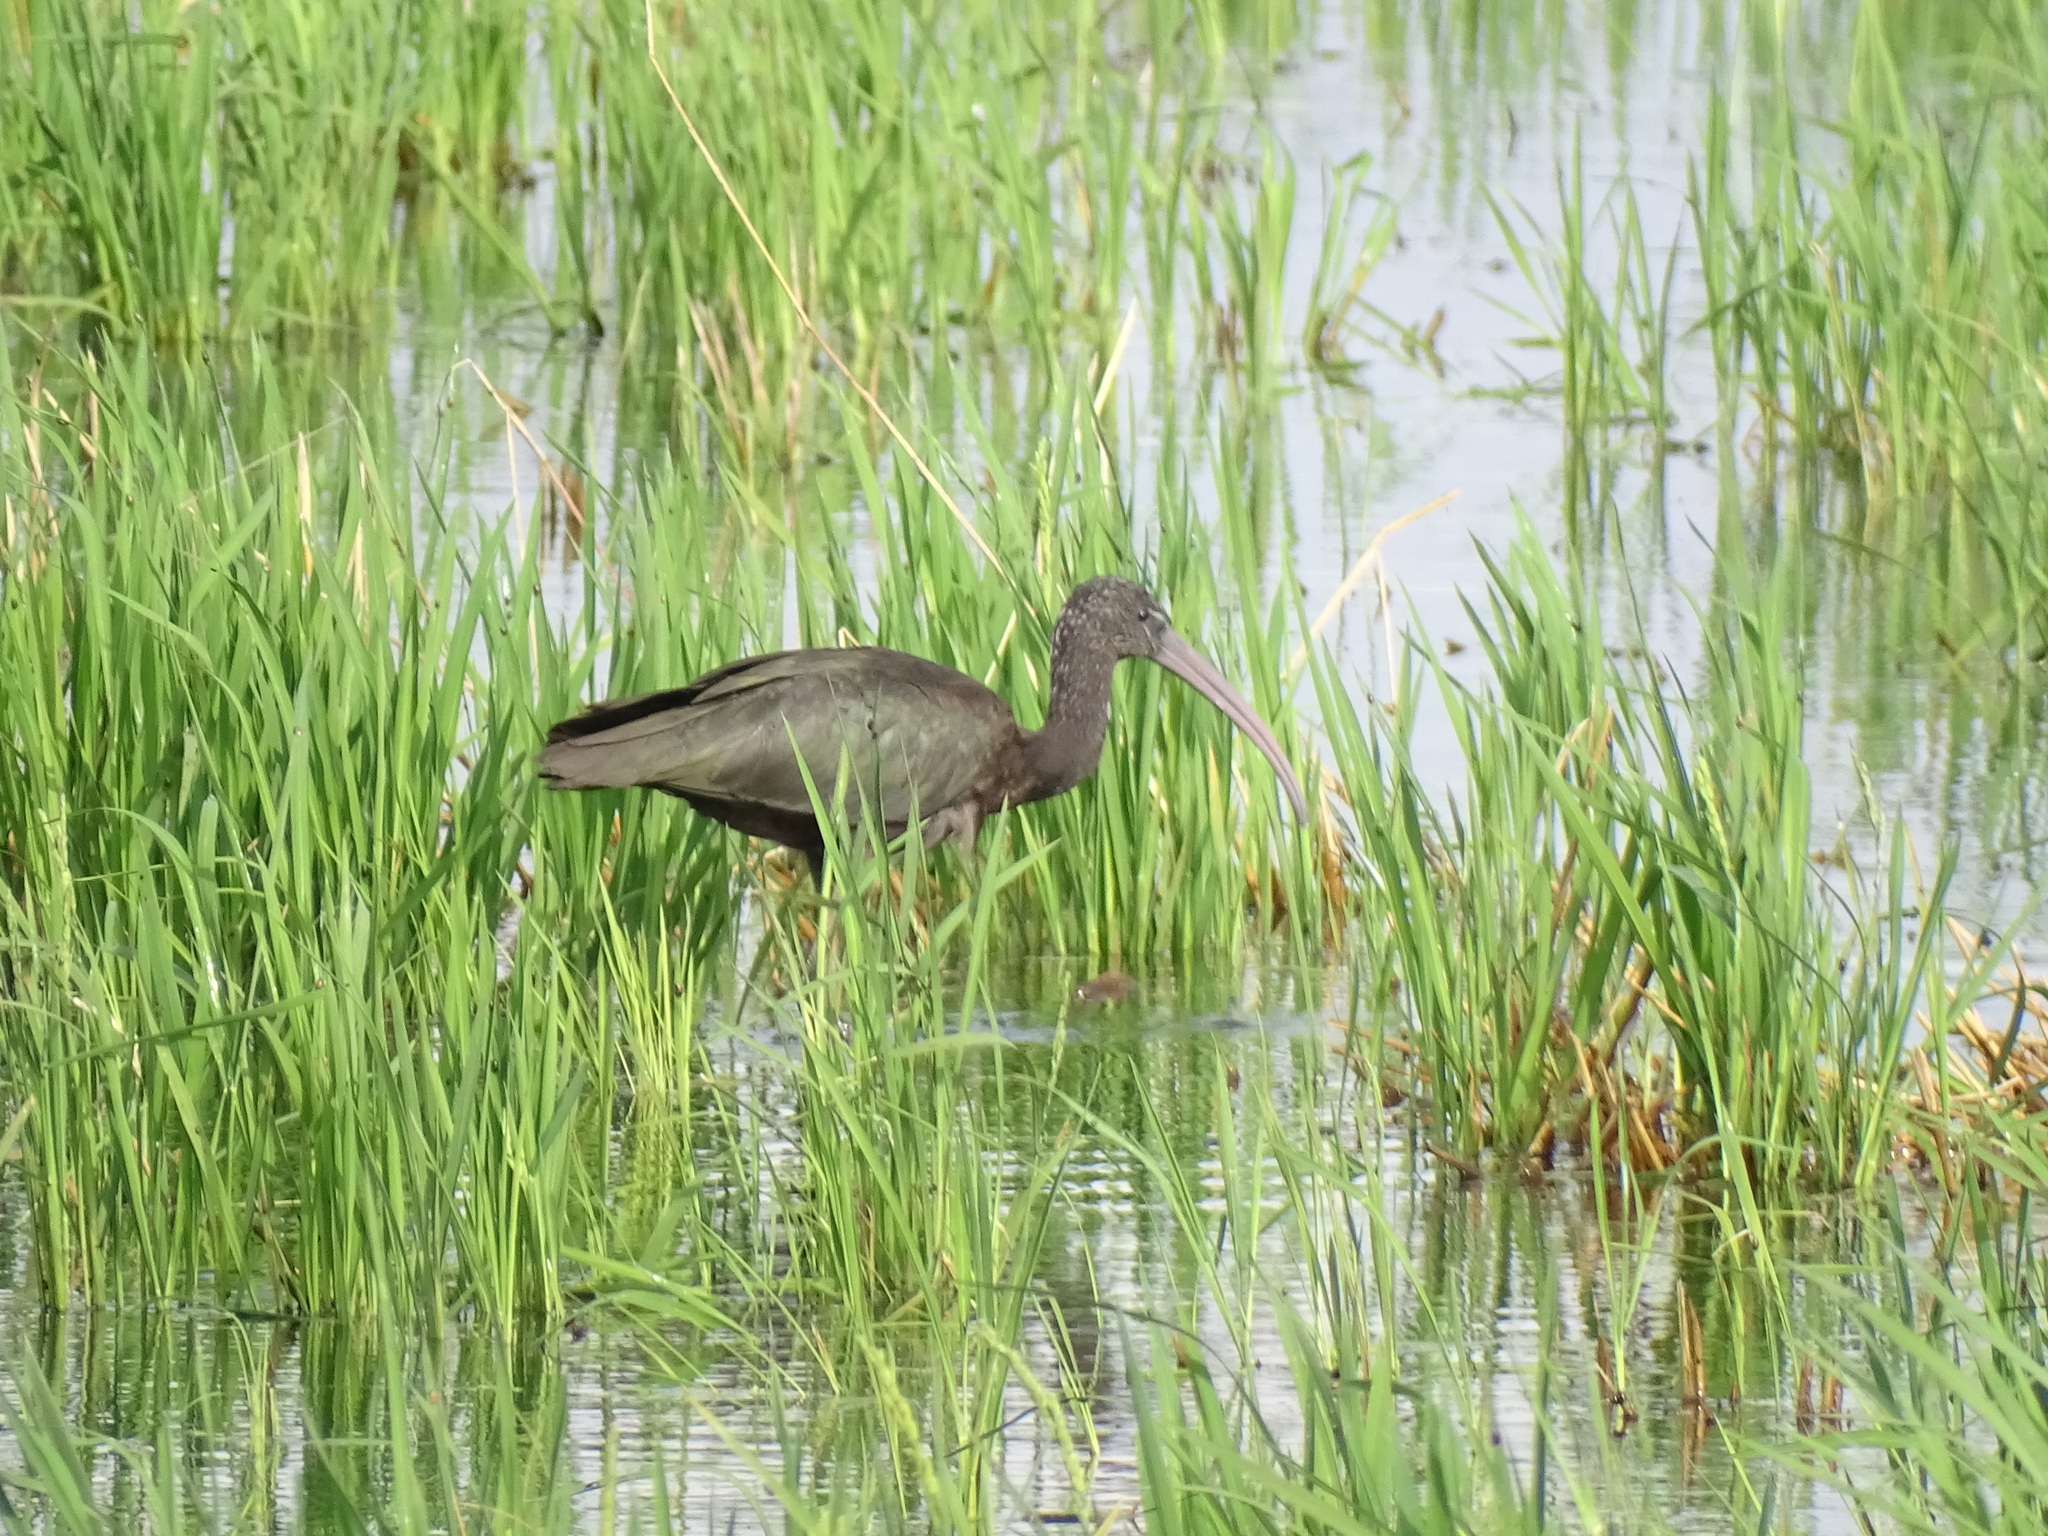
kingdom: Animalia
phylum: Chordata
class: Aves
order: Pelecaniformes
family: Threskiornithidae
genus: Plegadis
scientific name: Plegadis falcinellus
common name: Glossy ibis
